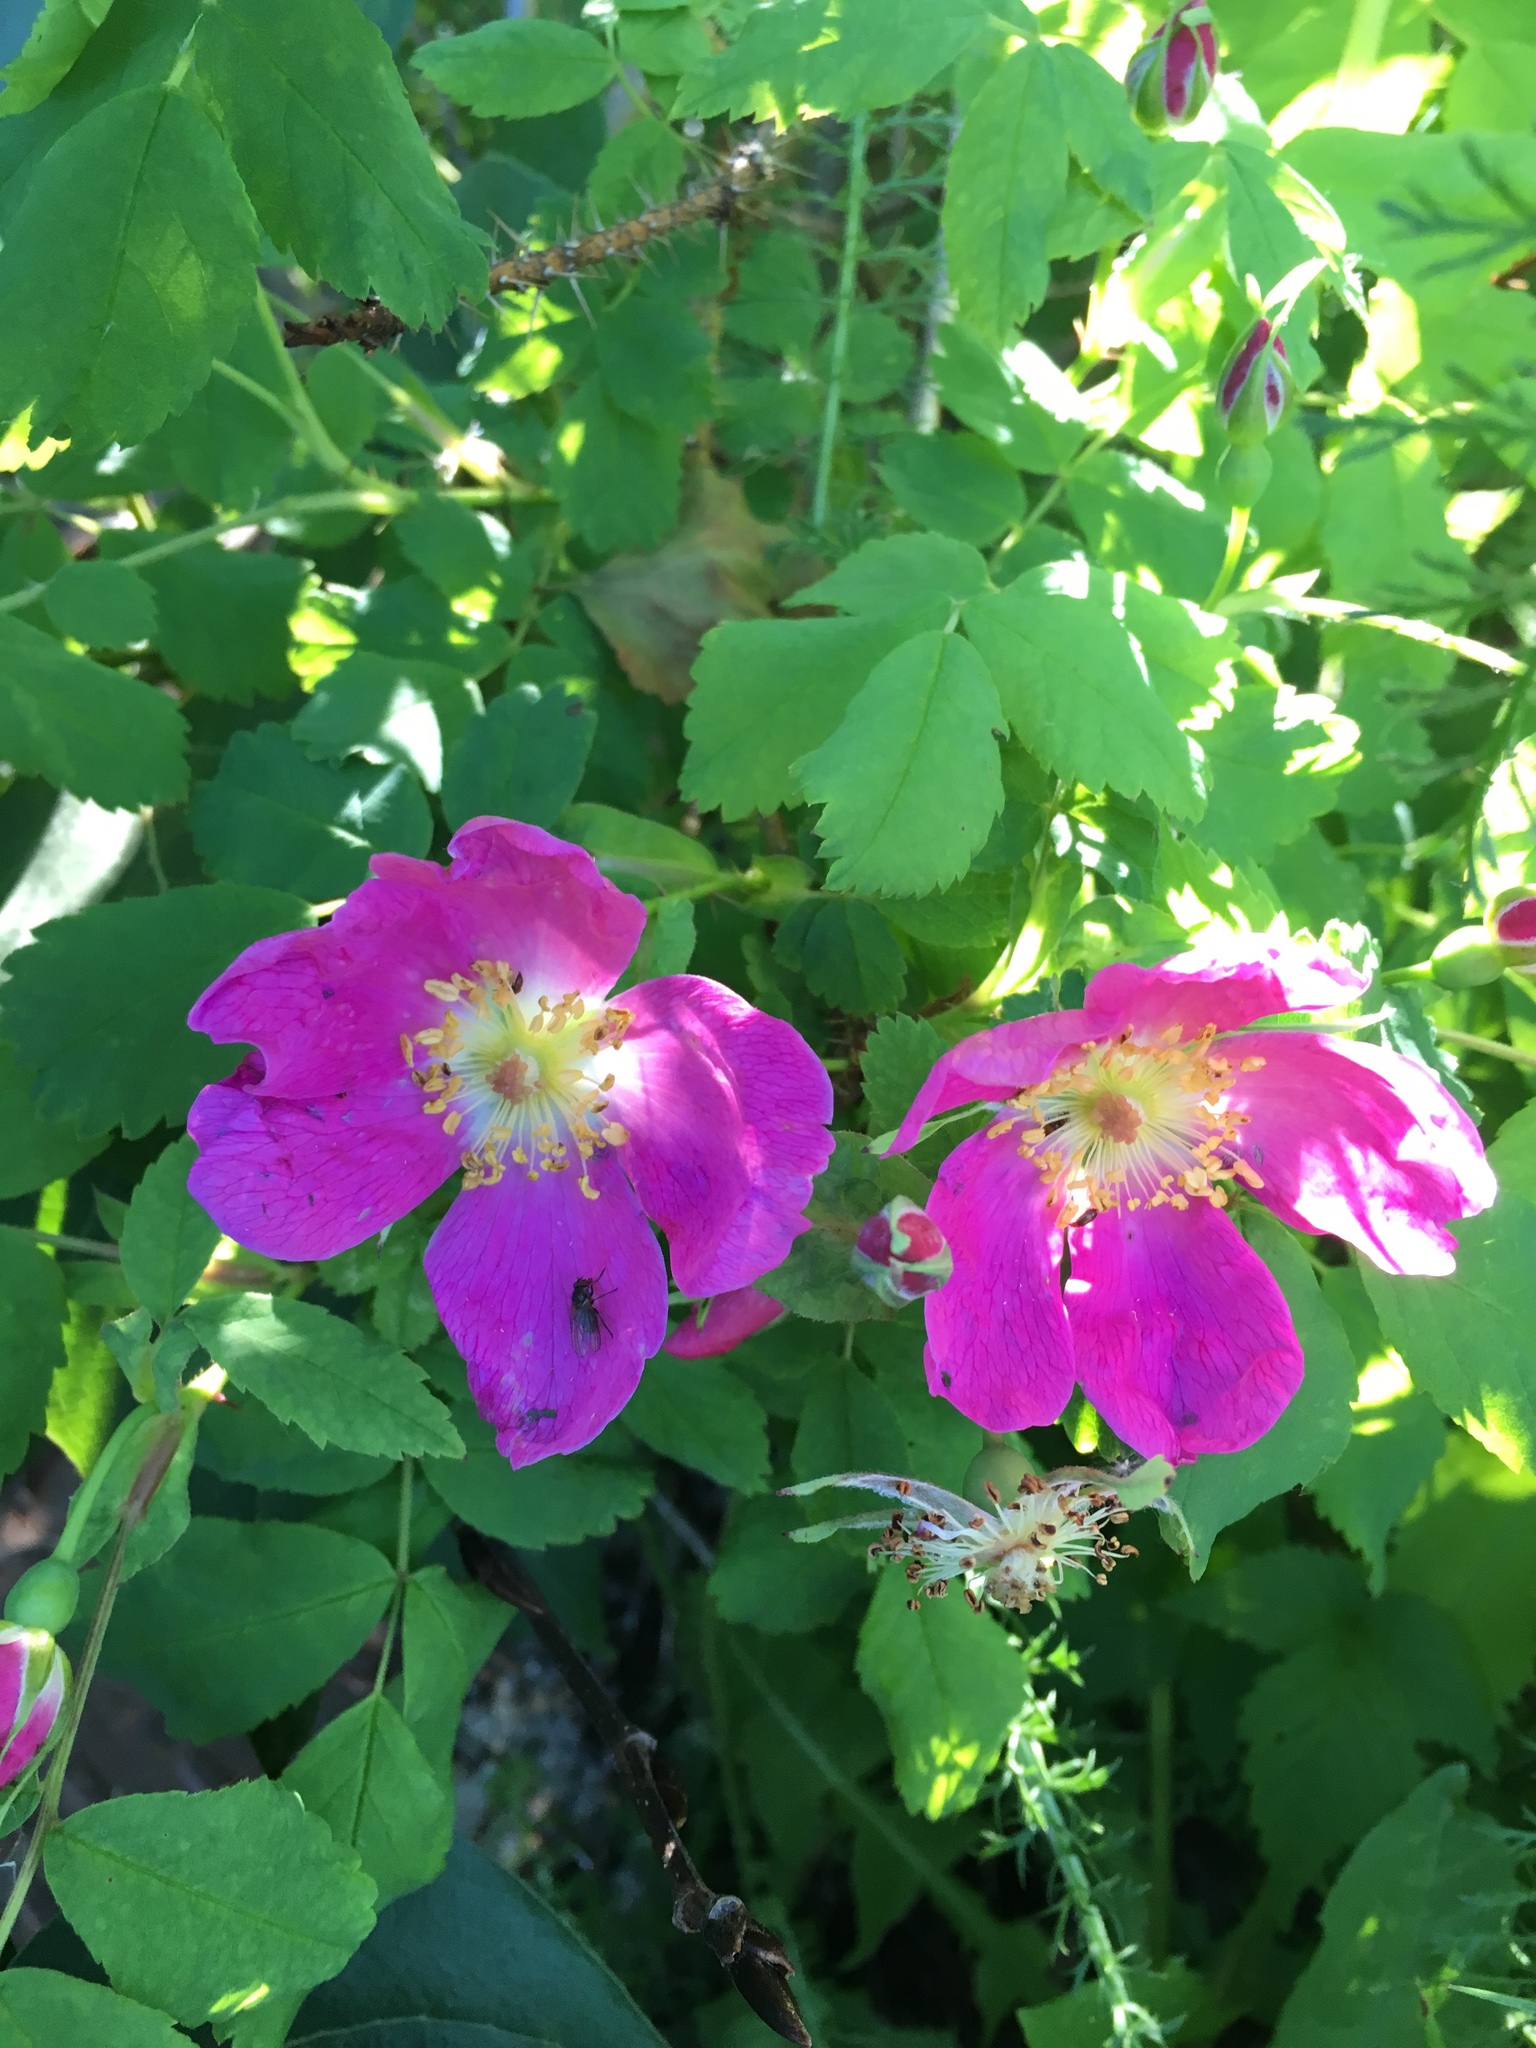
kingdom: Plantae
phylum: Tracheophyta
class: Magnoliopsida
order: Rosales
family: Rosaceae
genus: Rosa
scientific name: Rosa acicularis
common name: Prickly rose
